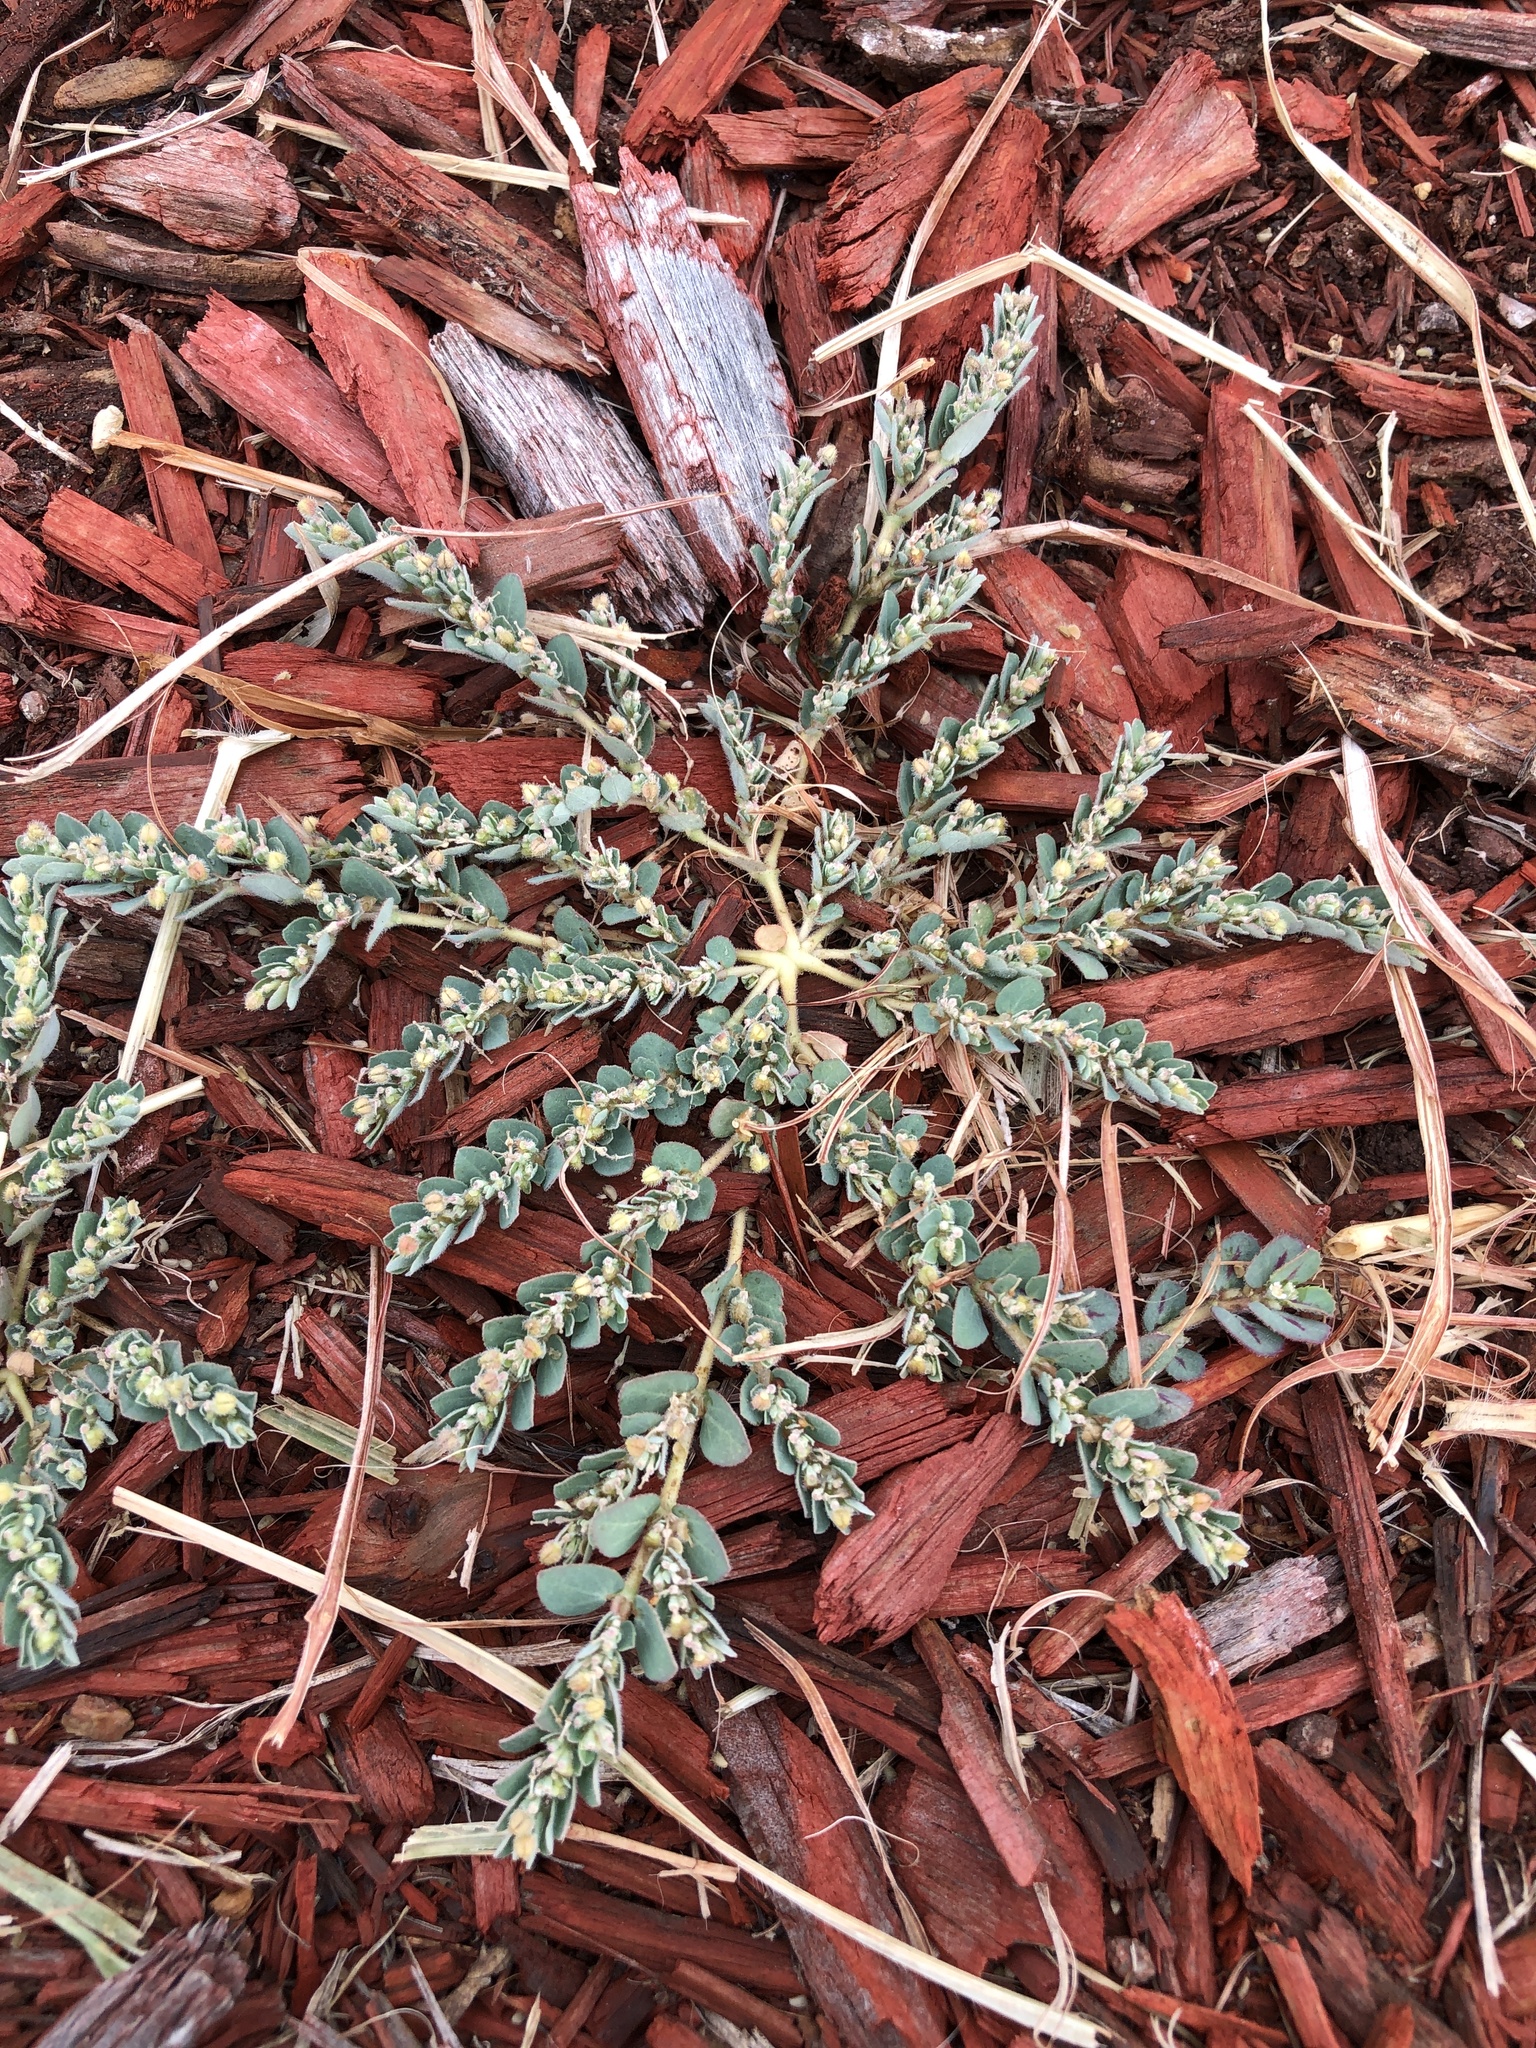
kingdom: Plantae
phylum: Tracheophyta
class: Magnoliopsida
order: Malpighiales
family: Euphorbiaceae
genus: Euphorbia
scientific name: Euphorbia prostrata
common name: Prostrate sandmat
